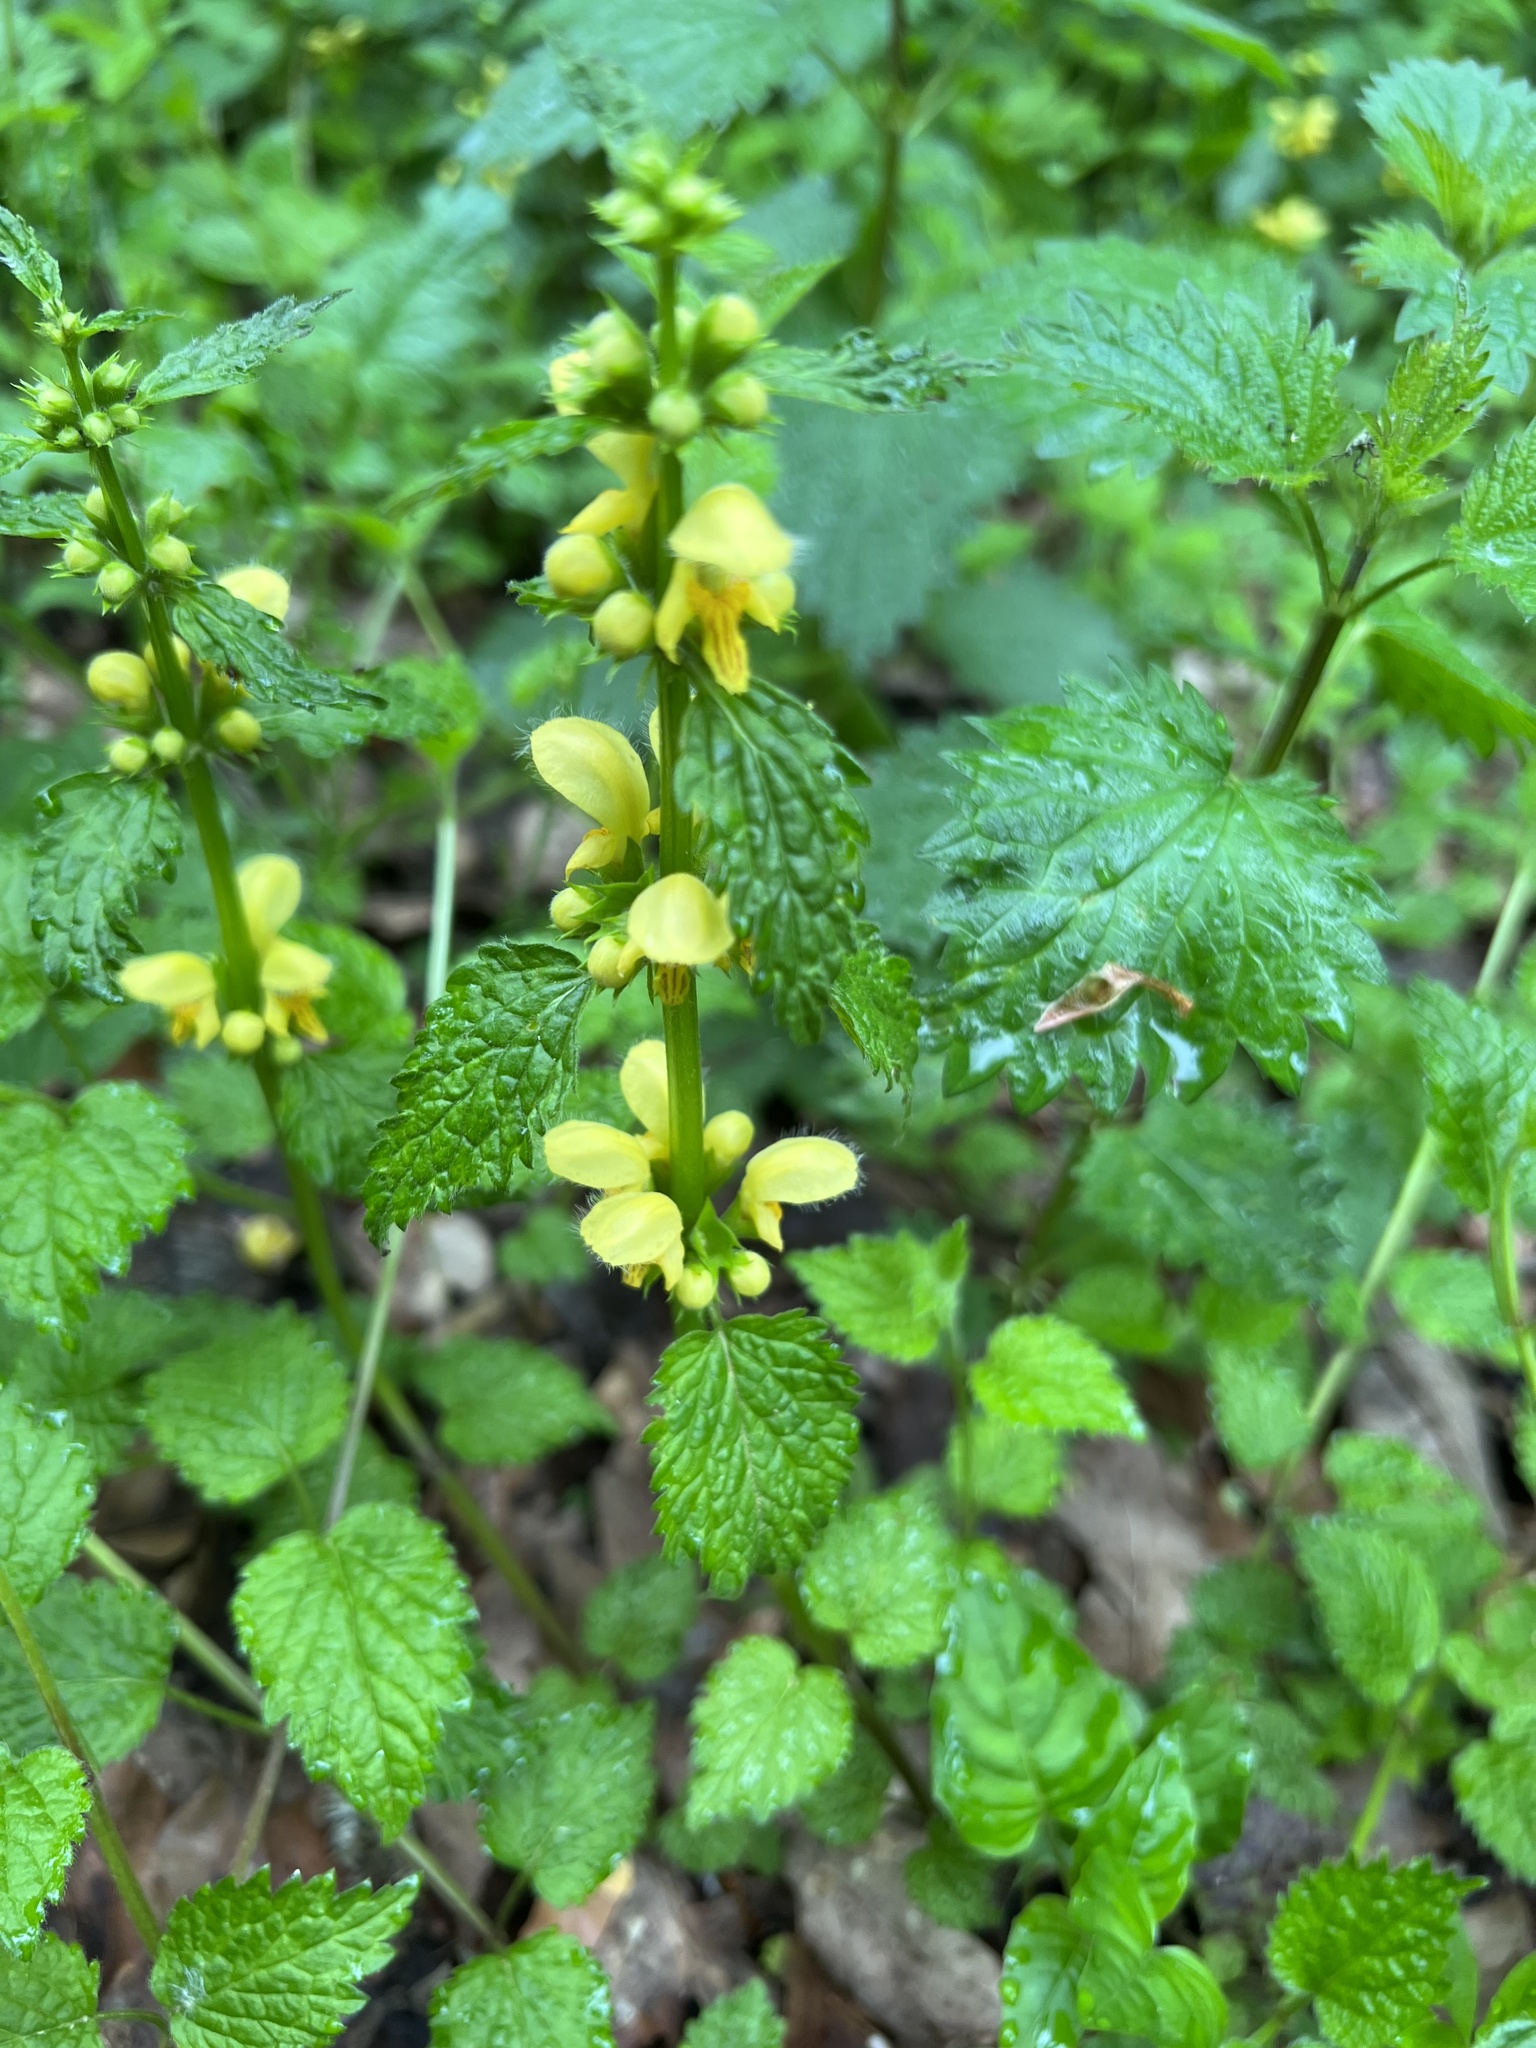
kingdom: Plantae
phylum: Tracheophyta
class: Magnoliopsida
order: Lamiales
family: Lamiaceae
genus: Lamium
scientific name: Lamium galeobdolon
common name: Yellow archangel
